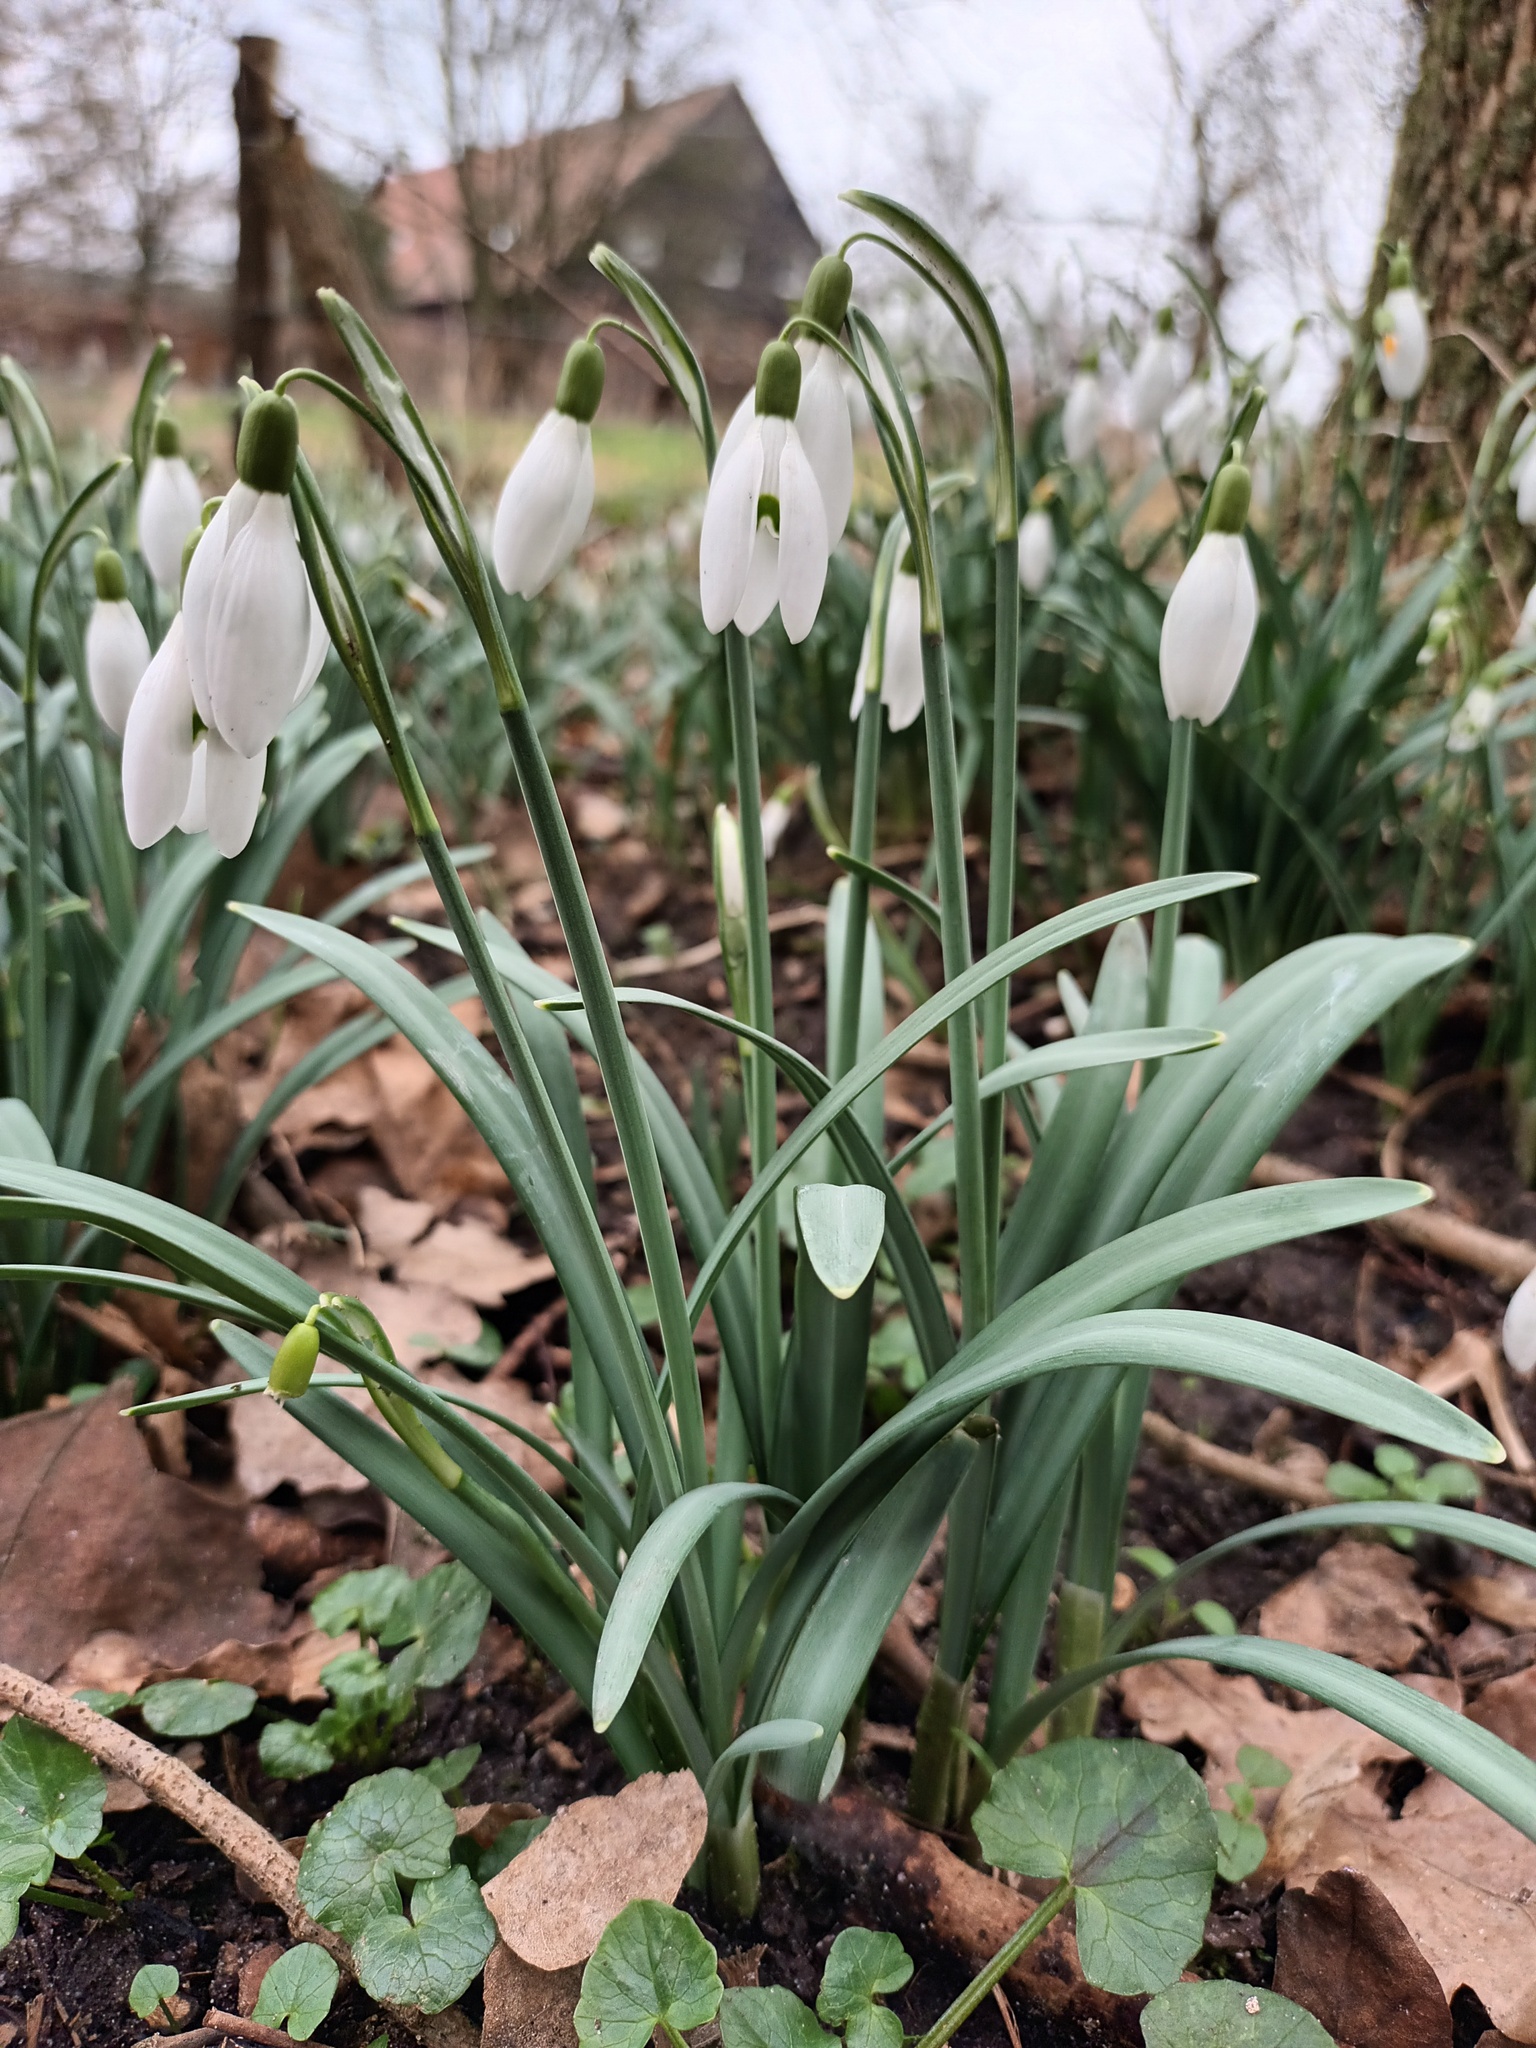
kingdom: Plantae
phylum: Tracheophyta
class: Liliopsida
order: Asparagales
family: Amaryllidaceae
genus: Galanthus
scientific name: Galanthus nivalis
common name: Snowdrop
